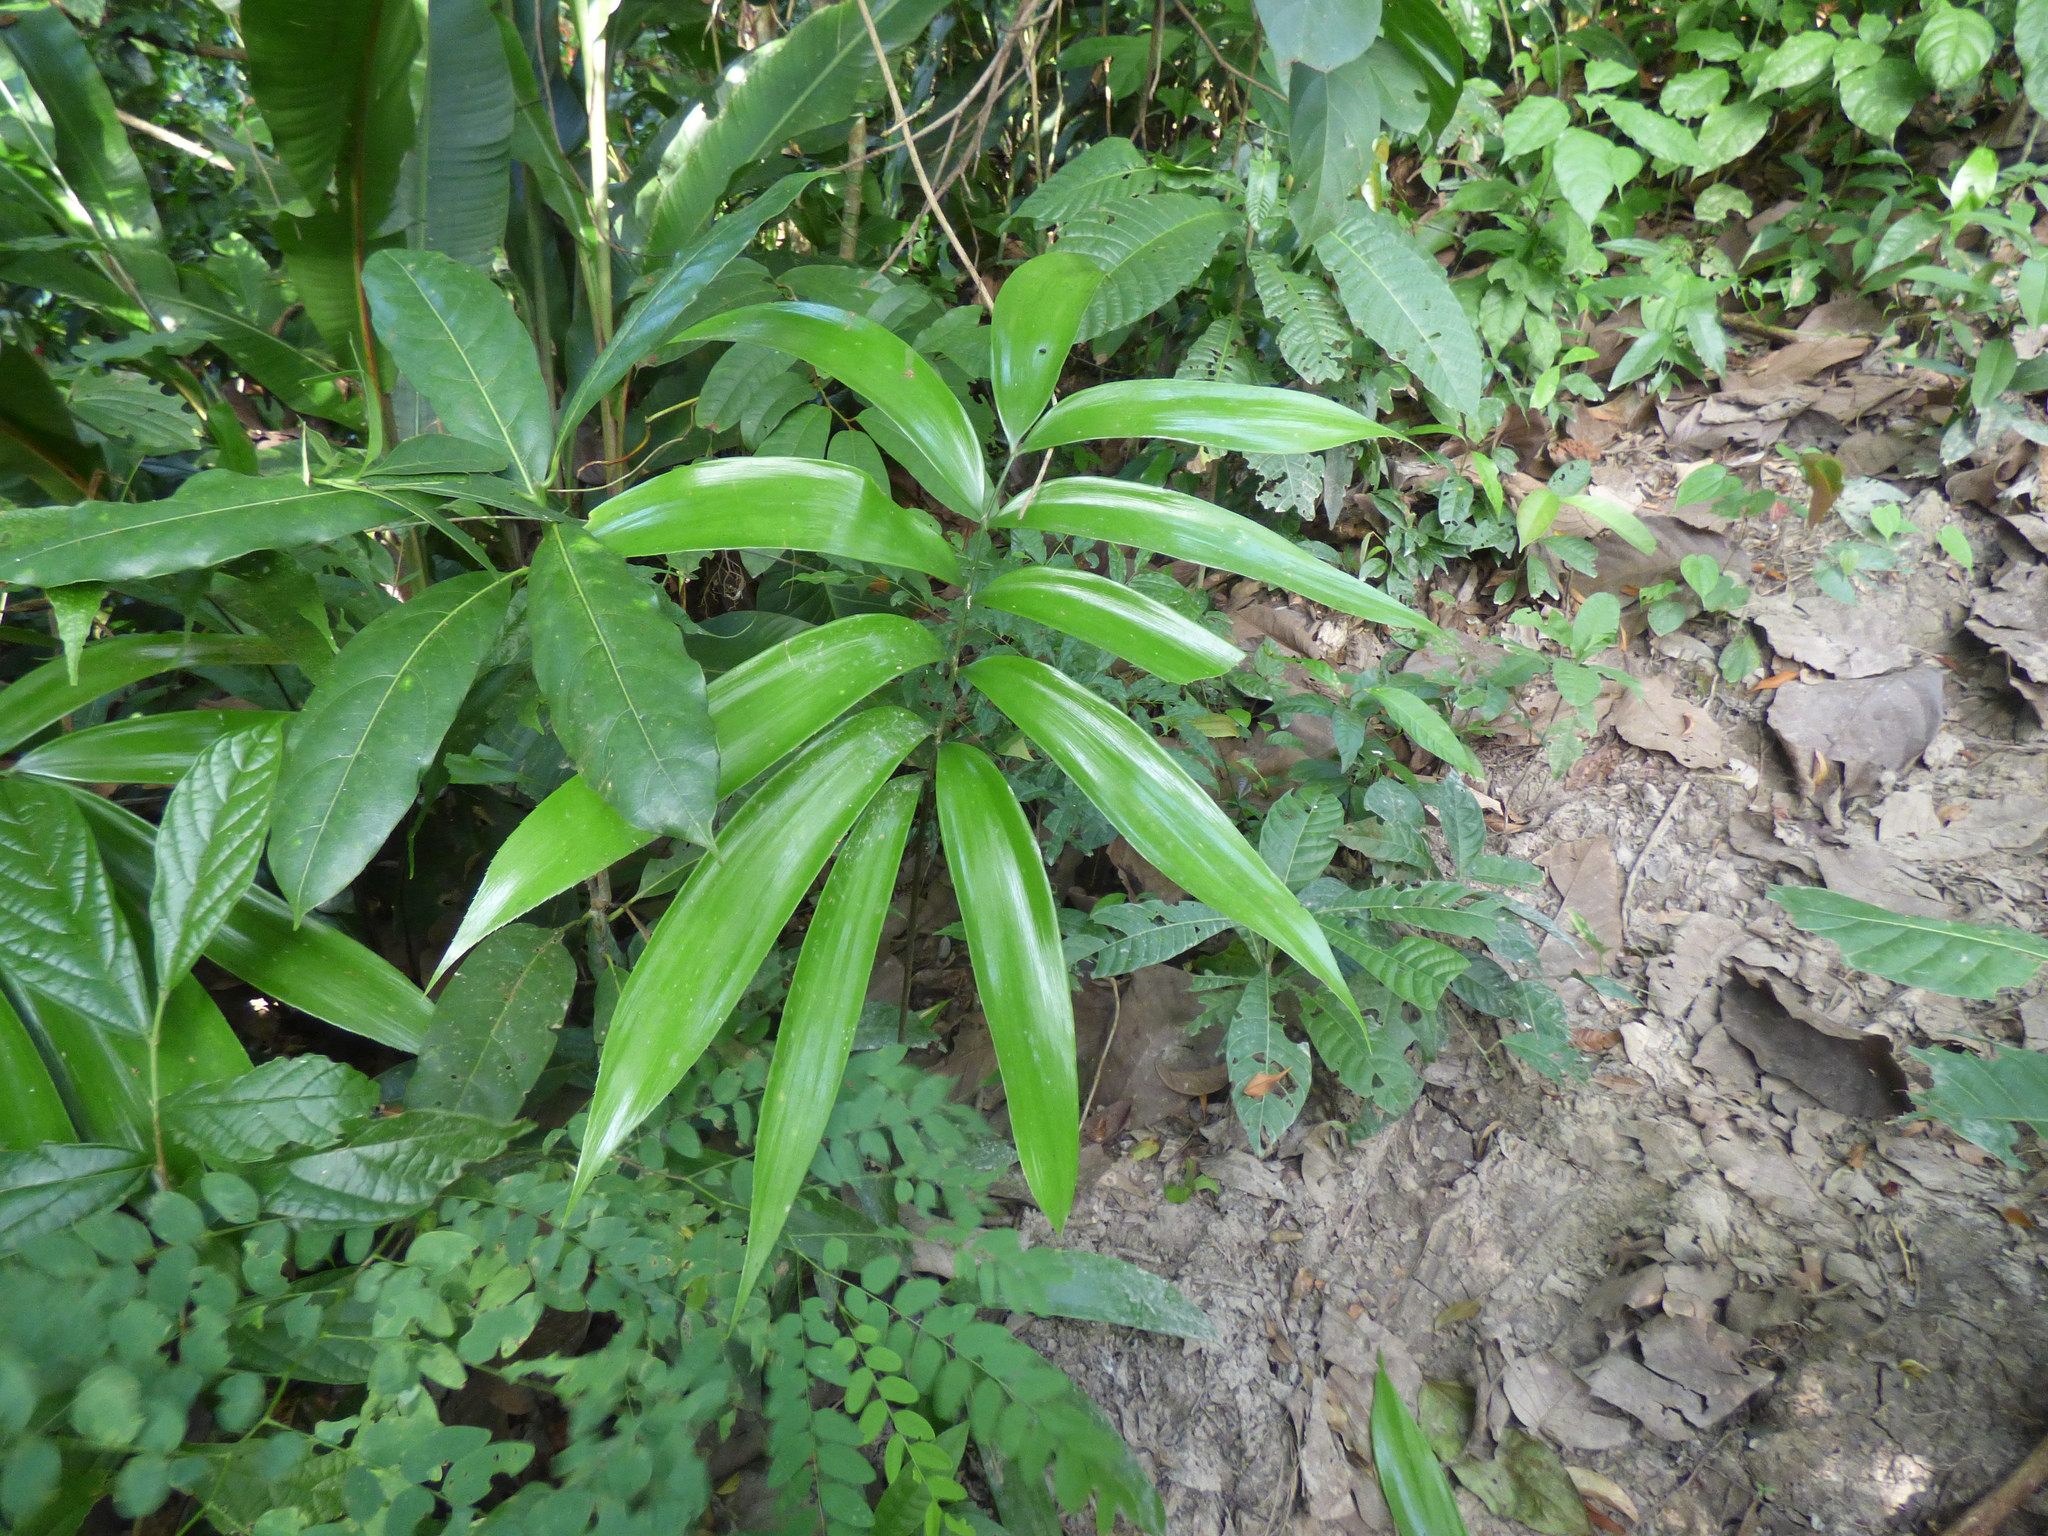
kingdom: Plantae
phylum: Tracheophyta
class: Cycadopsida
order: Cycadales
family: Zamiaceae
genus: Zamia
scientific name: Zamia incognita
